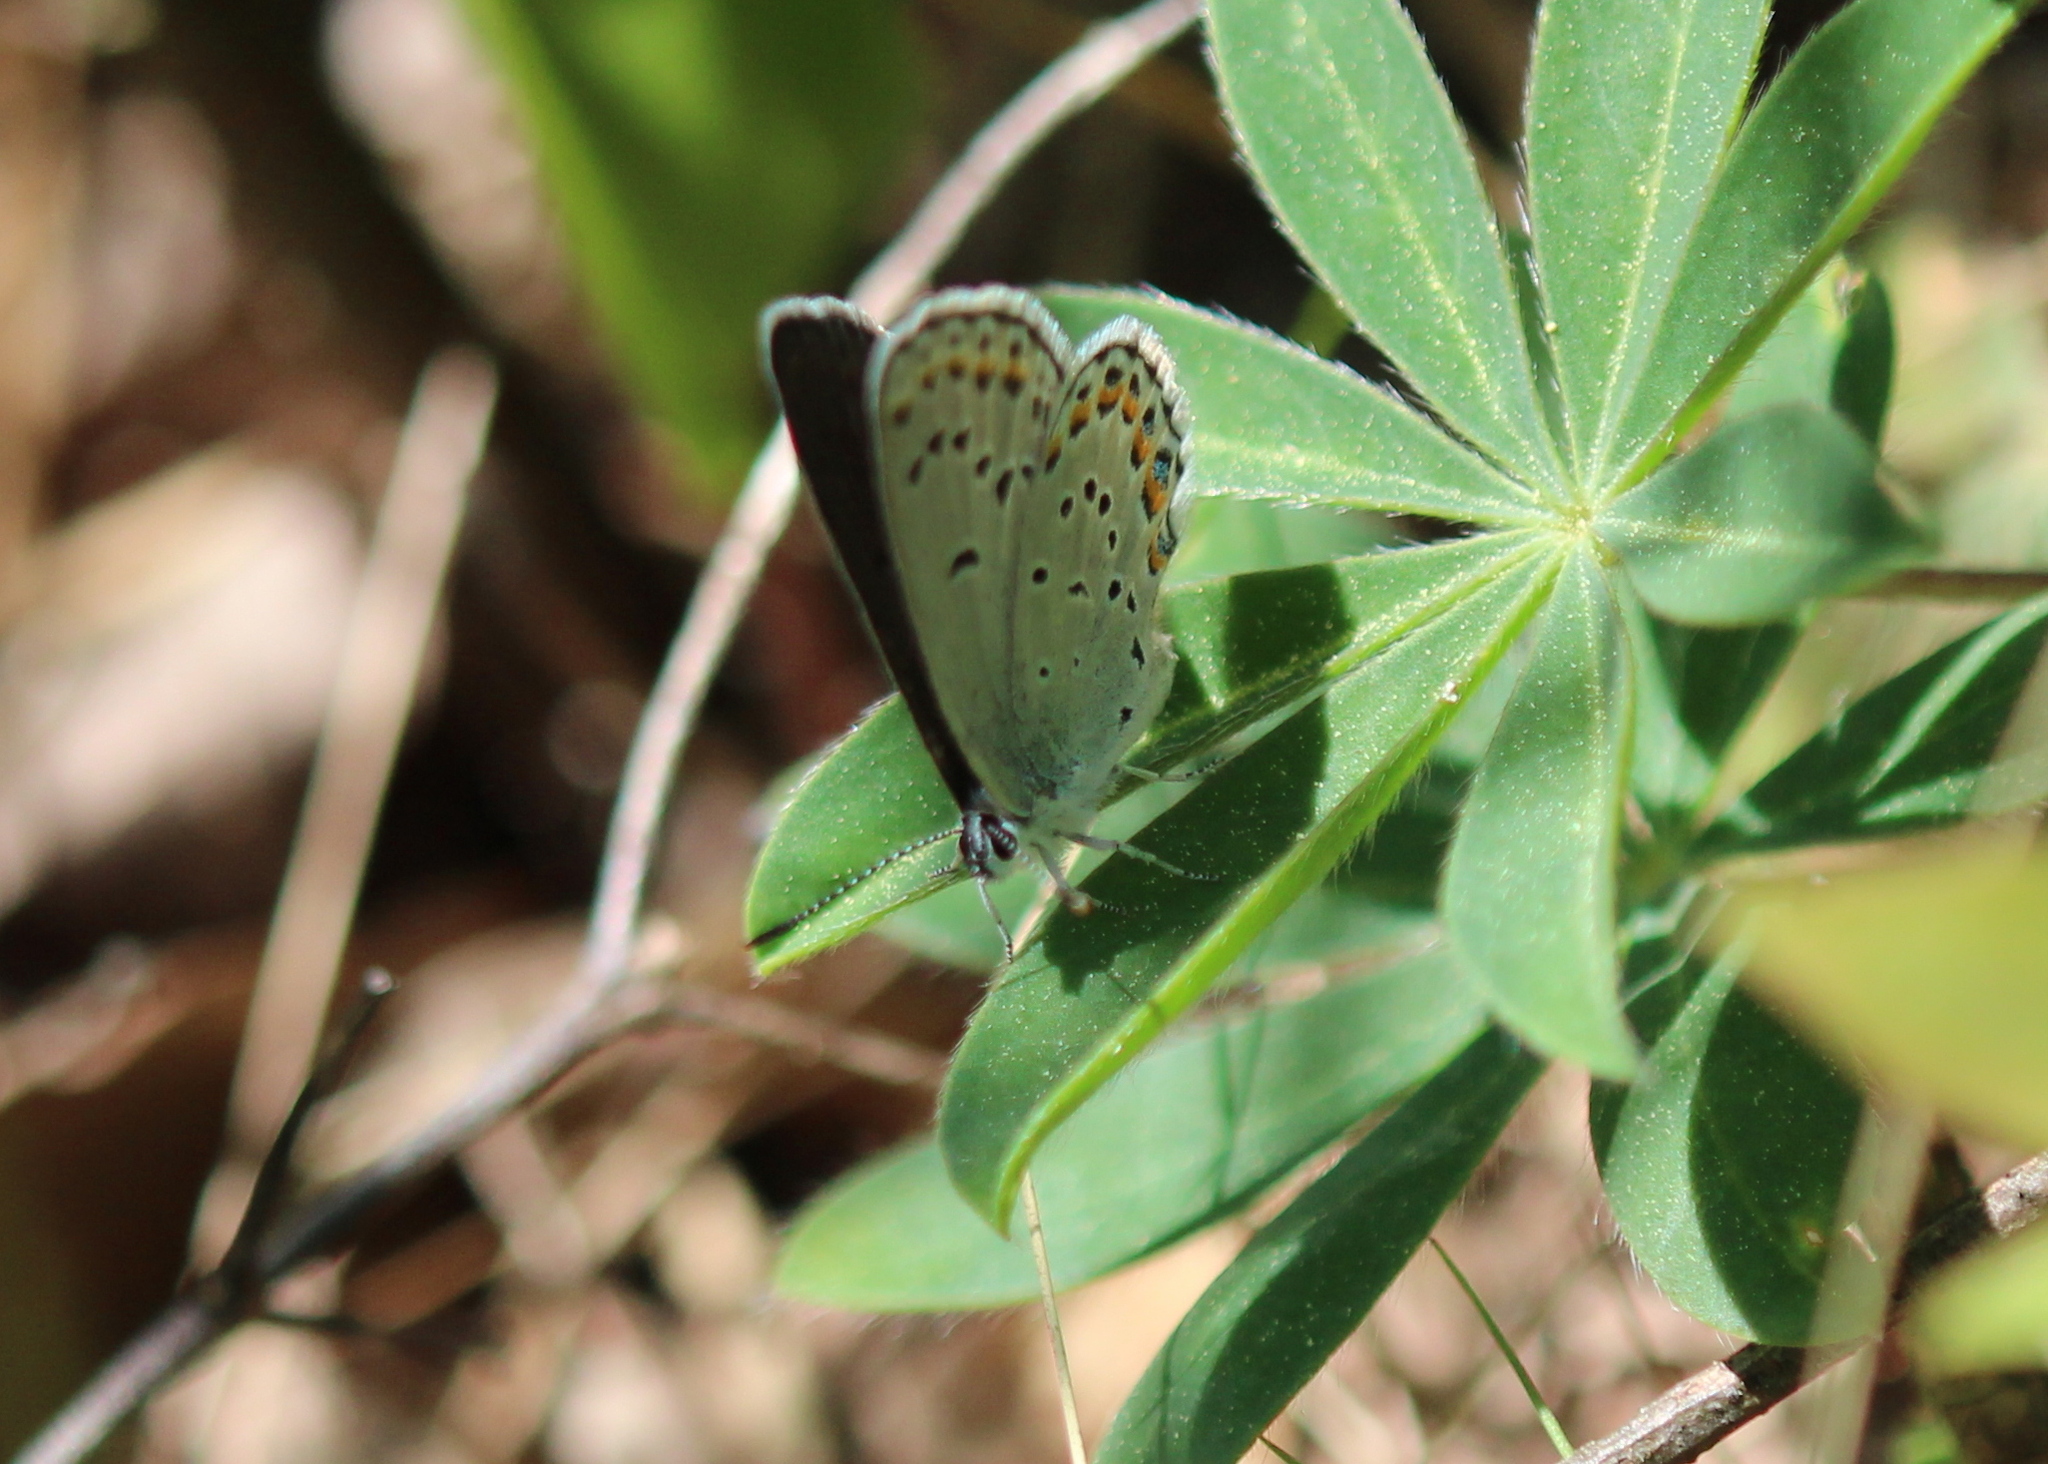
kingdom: Animalia
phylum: Arthropoda
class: Insecta
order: Lepidoptera
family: Lycaenidae
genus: Plebejus
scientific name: Plebejus samuelis
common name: Karner blue
